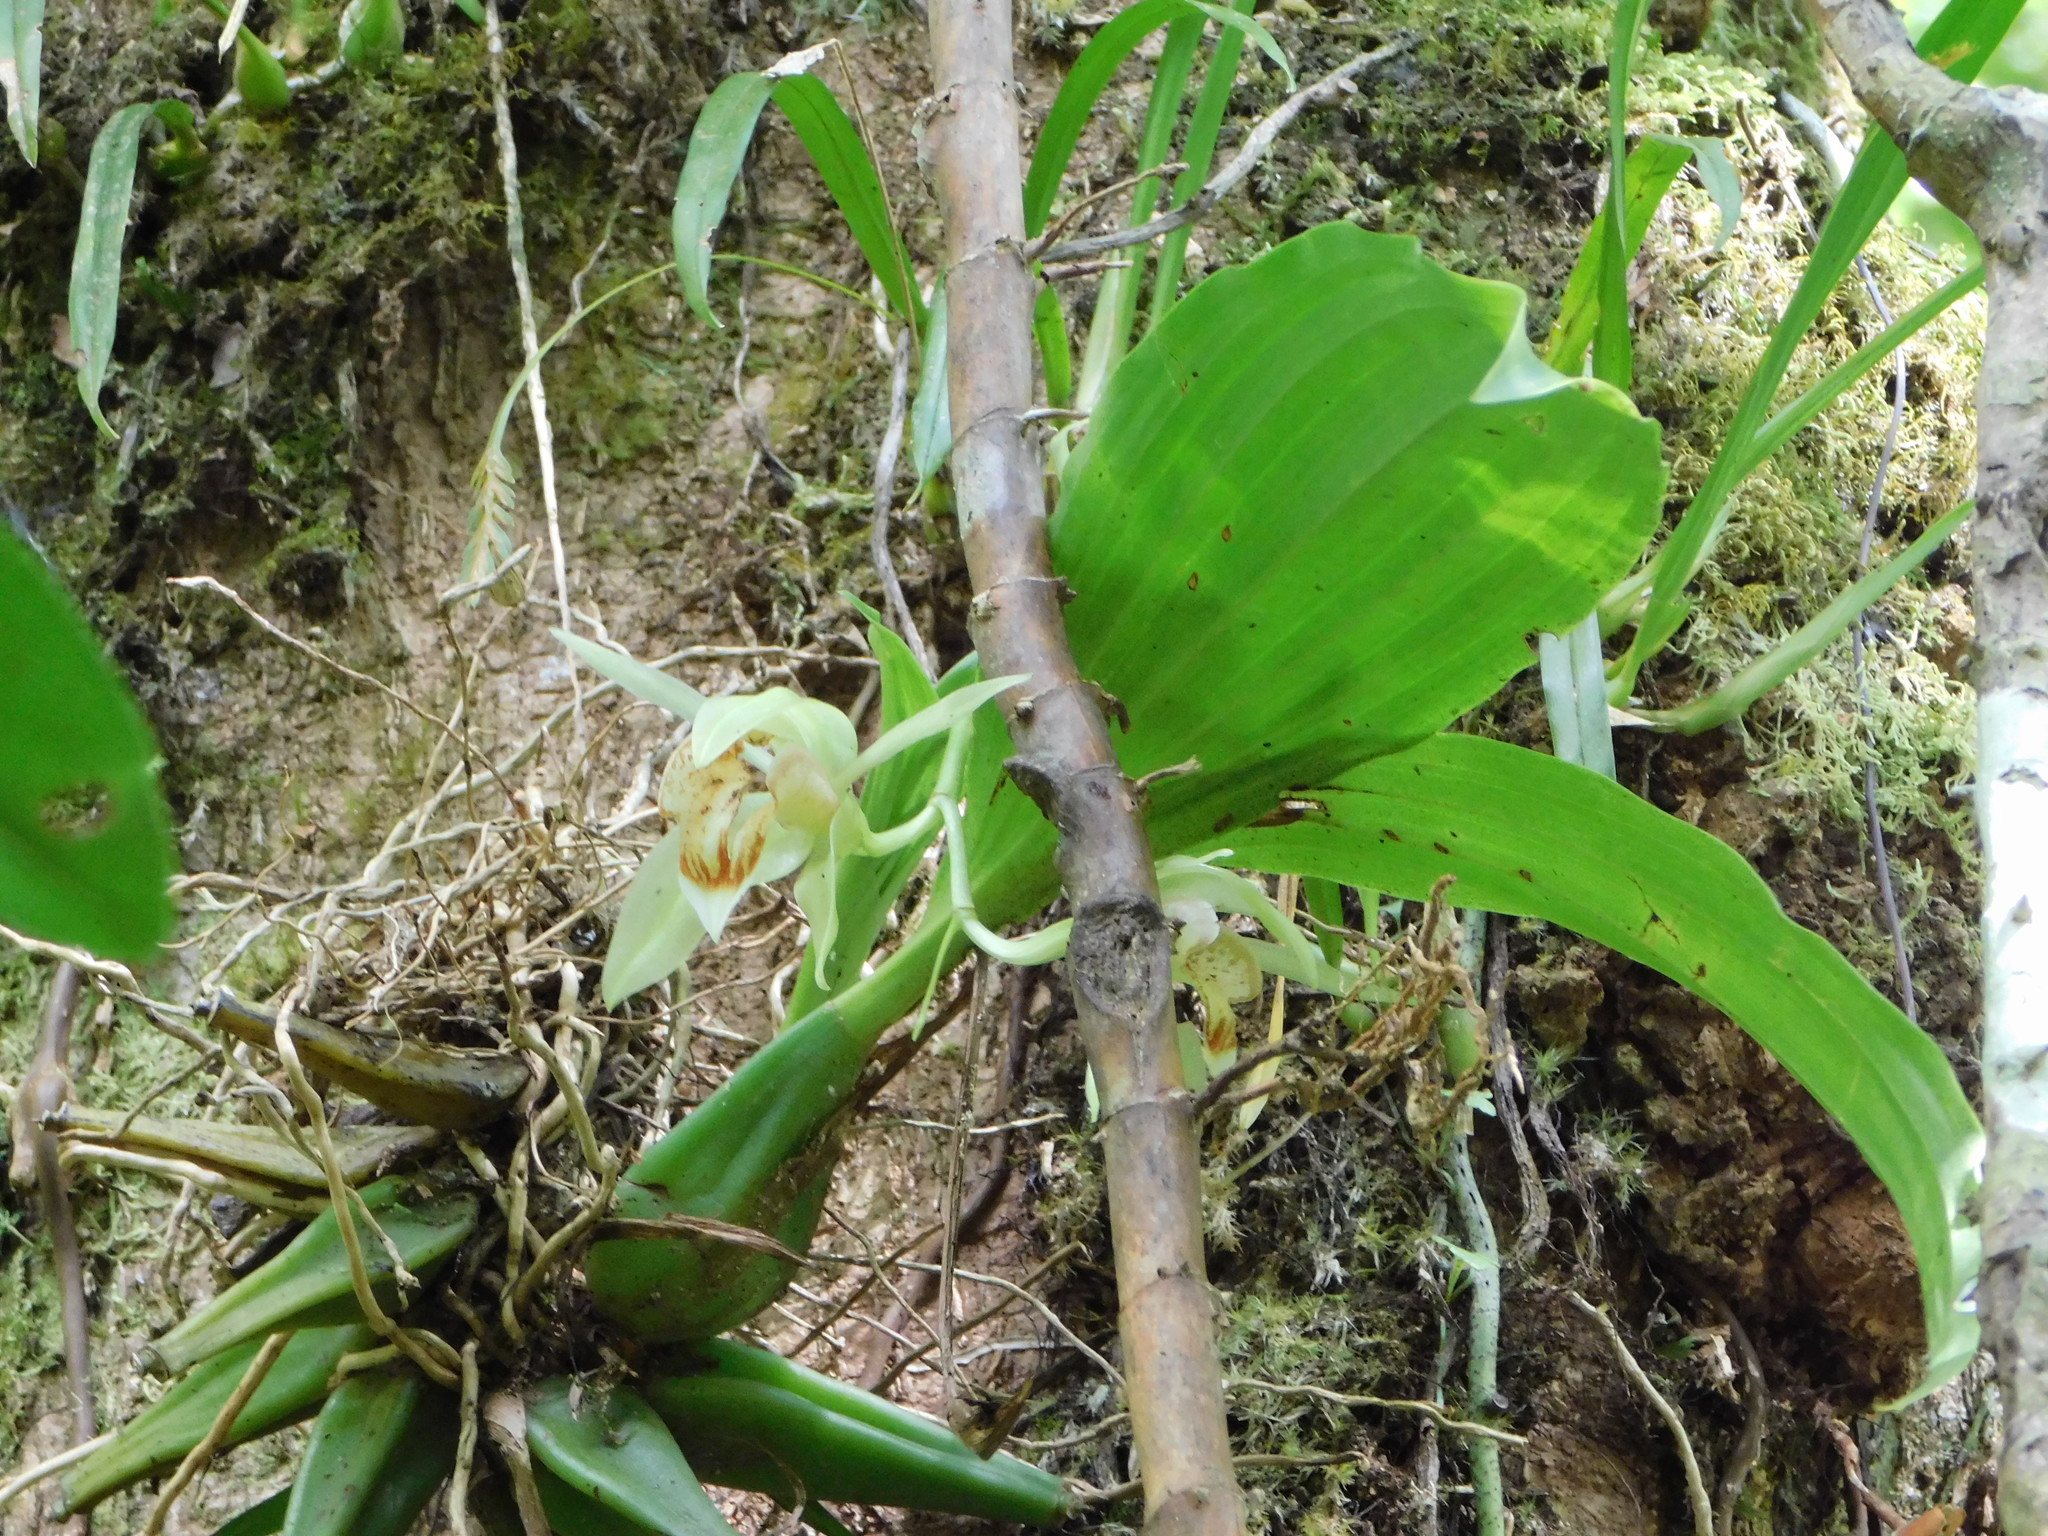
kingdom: Plantae
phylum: Tracheophyta
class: Liliopsida
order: Asparagales
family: Orchidaceae
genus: Coelogyne
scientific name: Coelogyne macdonaldii
